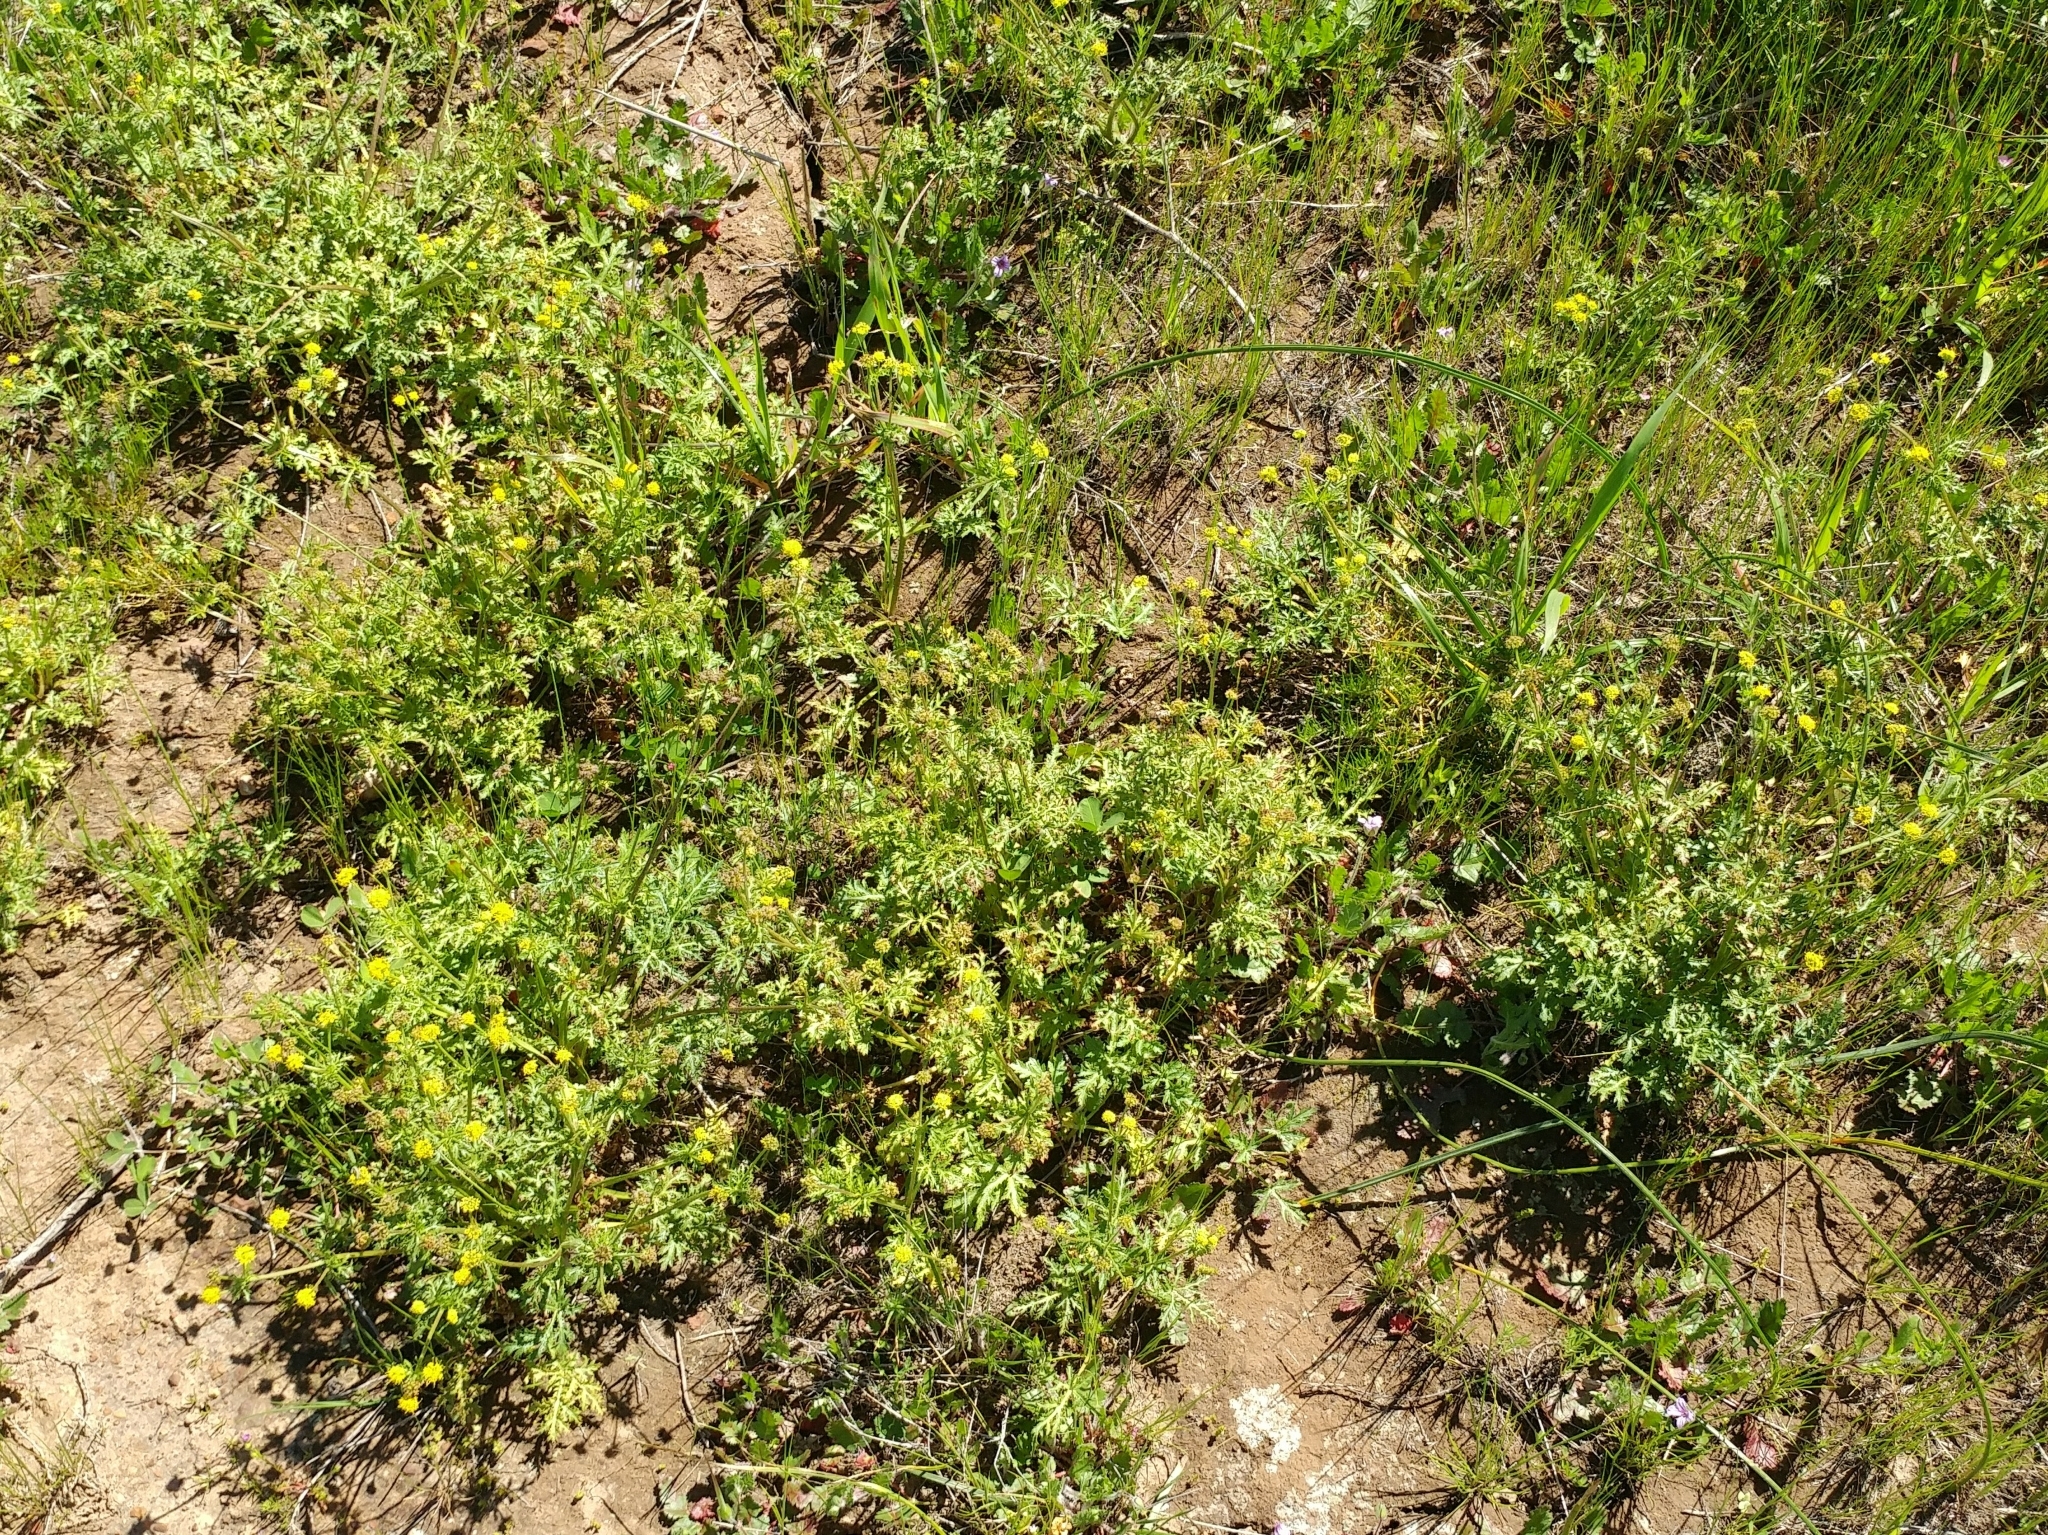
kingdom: Plantae
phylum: Tracheophyta
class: Magnoliopsida
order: Apiales
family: Apiaceae
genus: Sanicula
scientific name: Sanicula arguta
